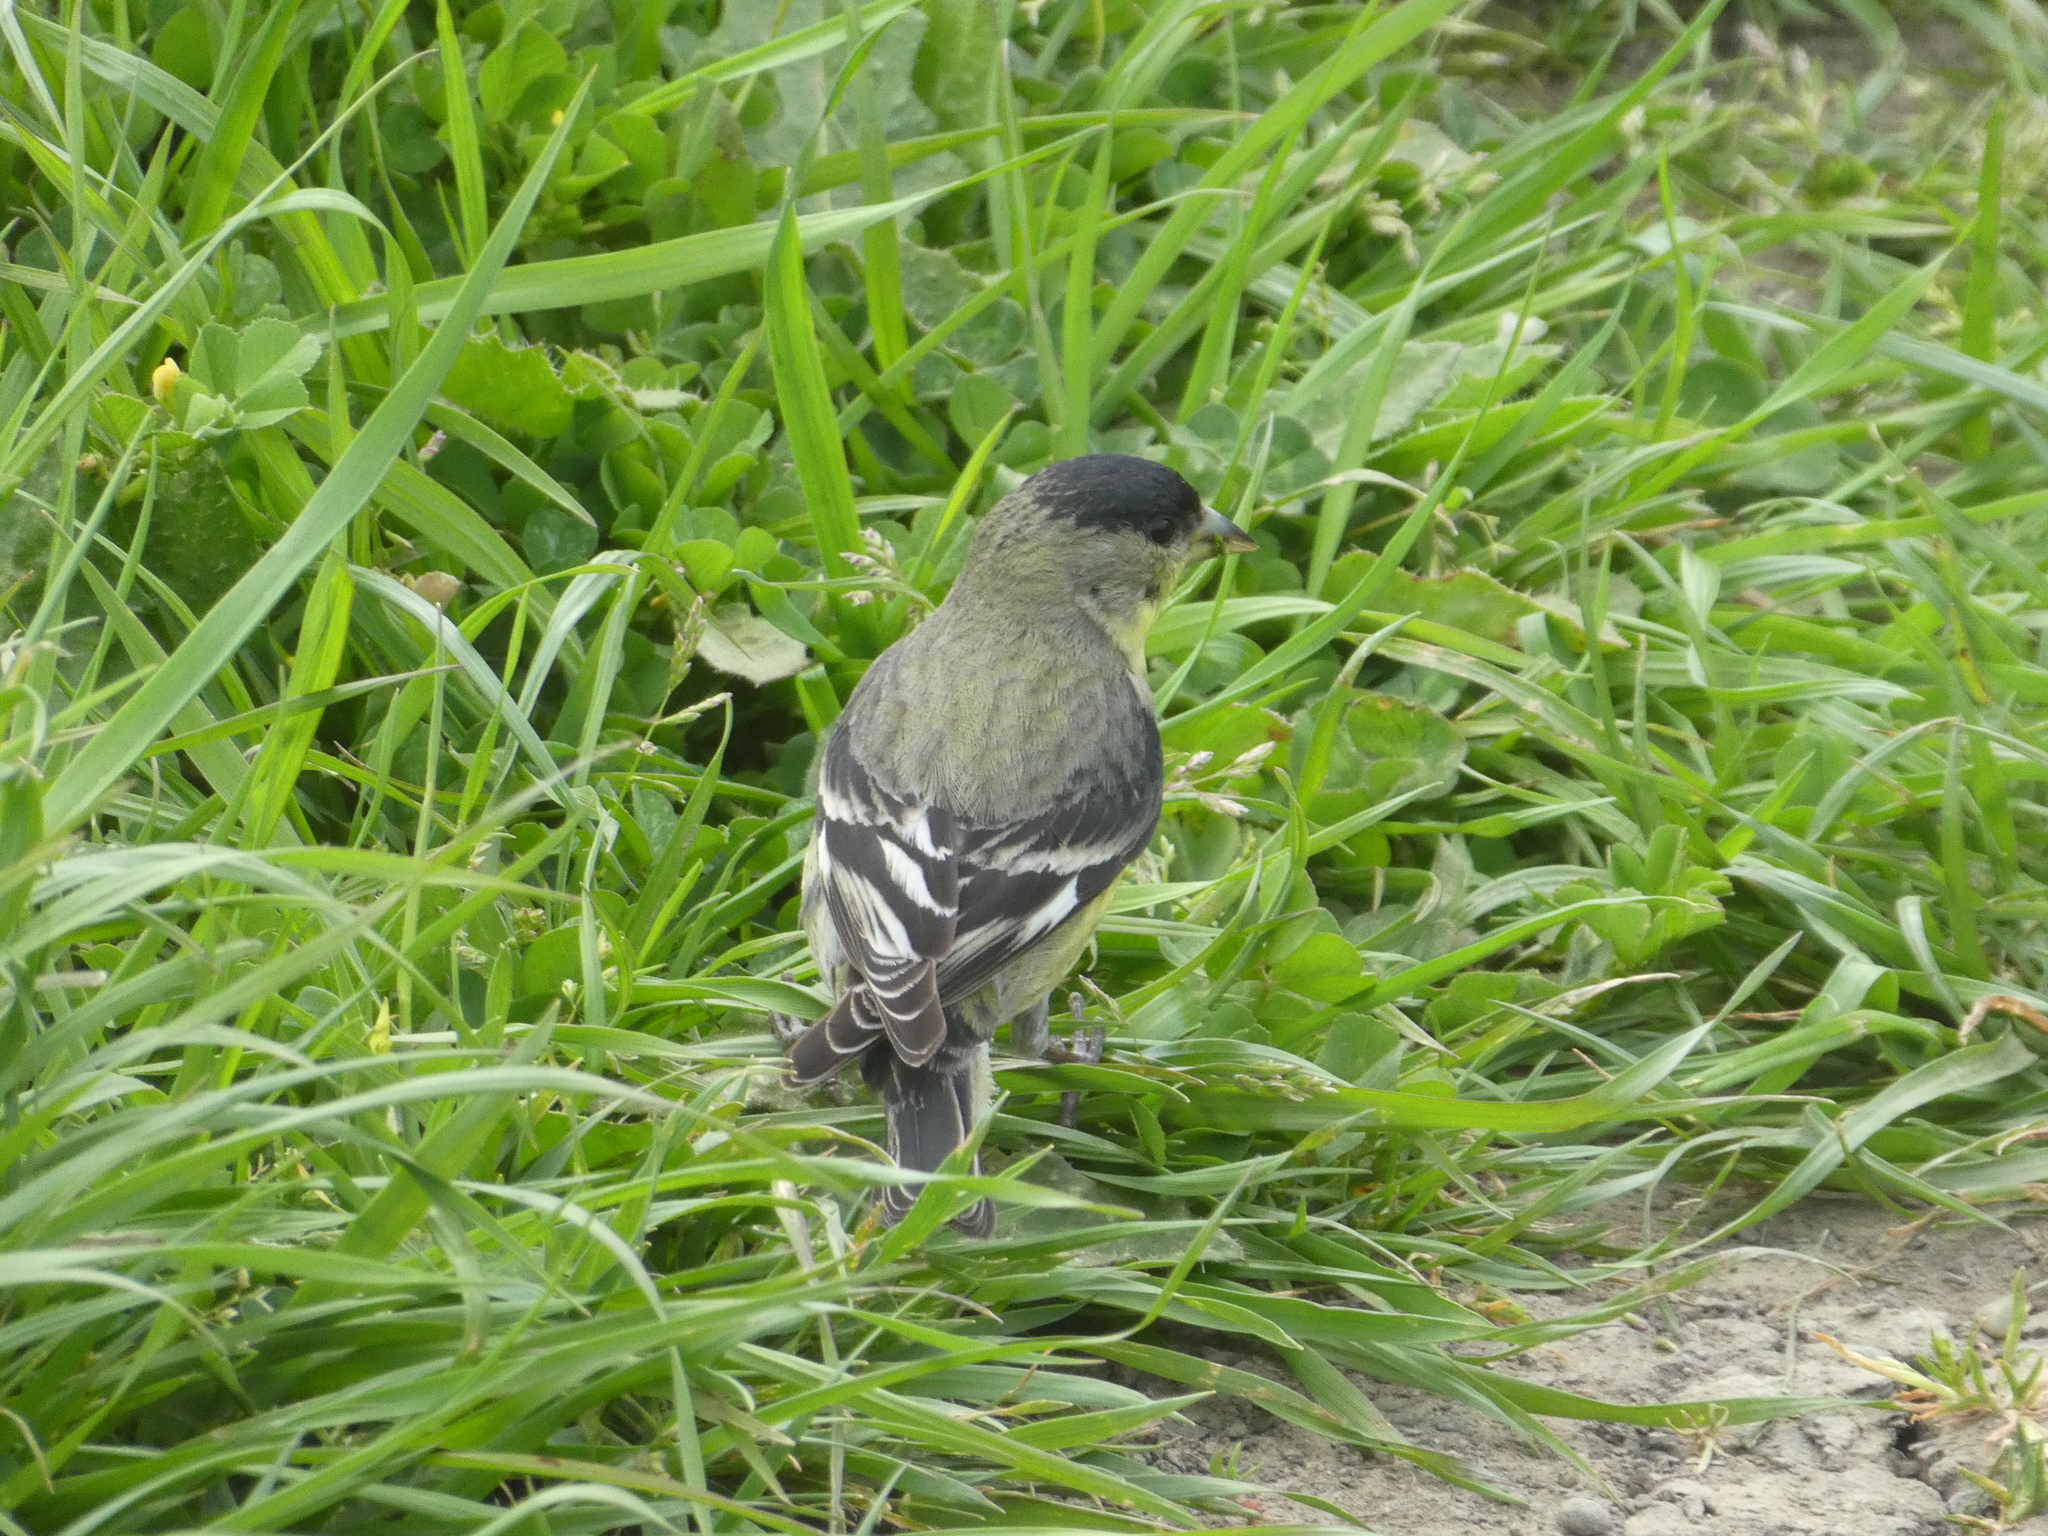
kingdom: Animalia
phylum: Chordata
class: Aves
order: Passeriformes
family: Fringillidae
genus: Spinus
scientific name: Spinus psaltria
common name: Lesser goldfinch
